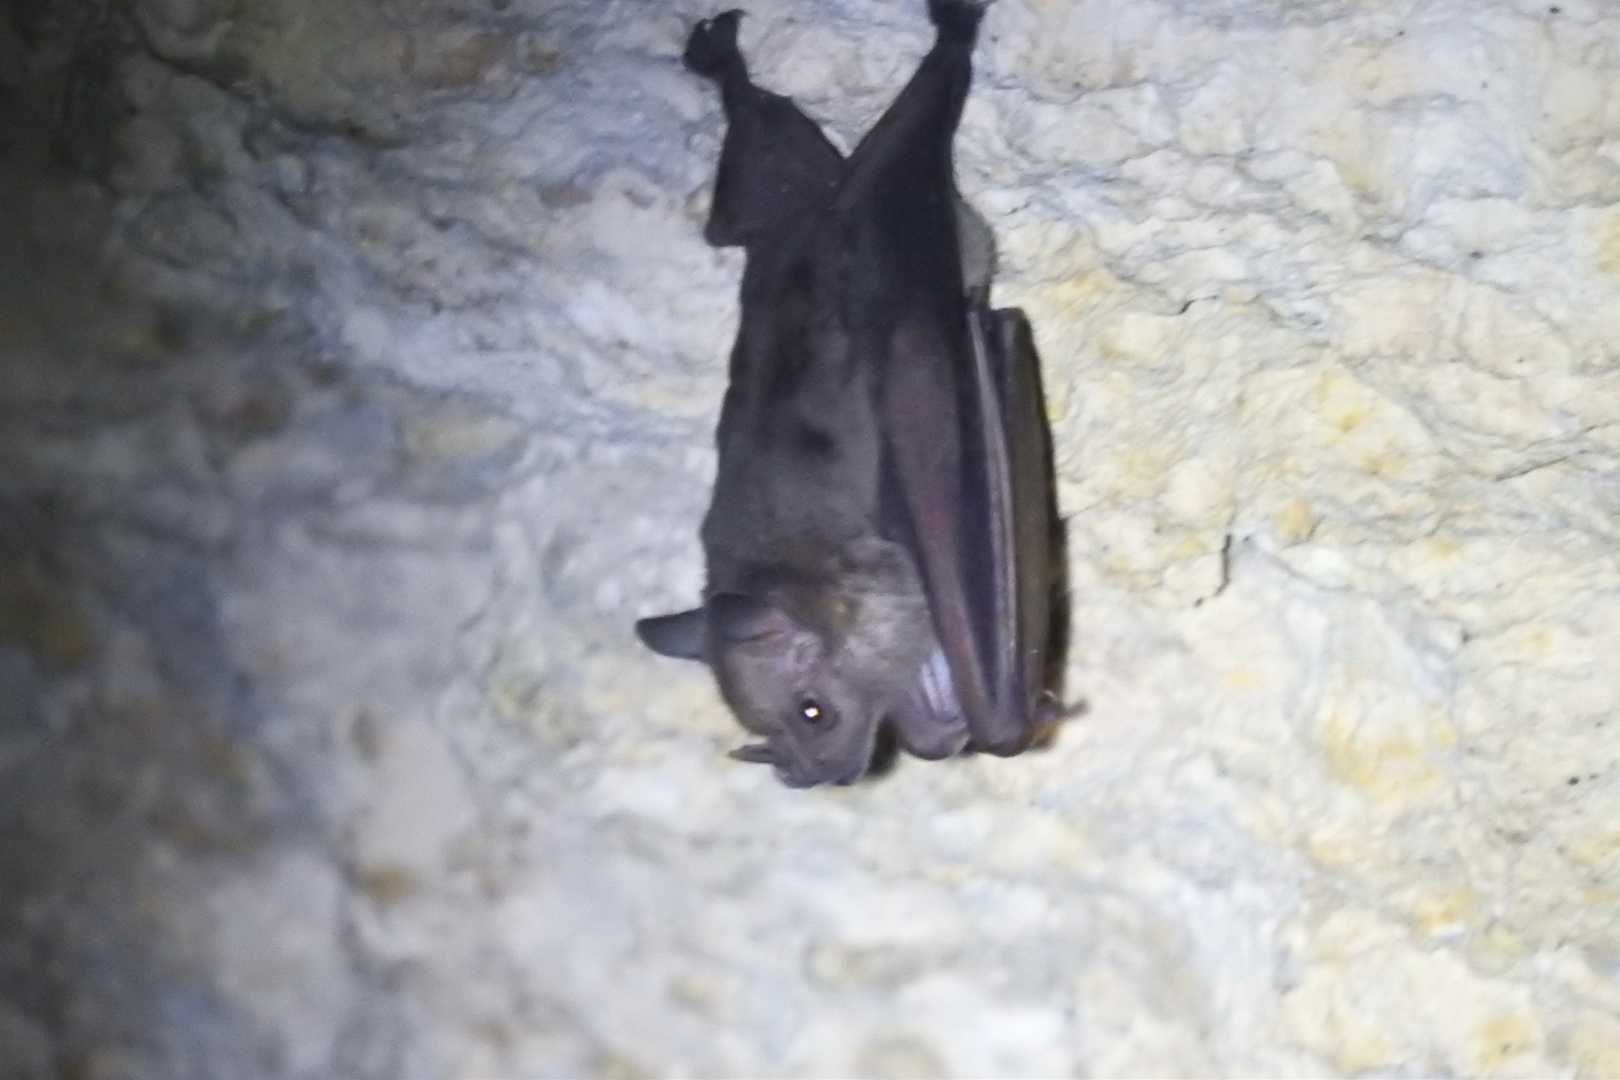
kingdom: Animalia
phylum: Chordata
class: Mammalia
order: Chiroptera
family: Phyllostomidae
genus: Artibeus
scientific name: Artibeus jamaicensis
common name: Jamaican fruit-eating bat
